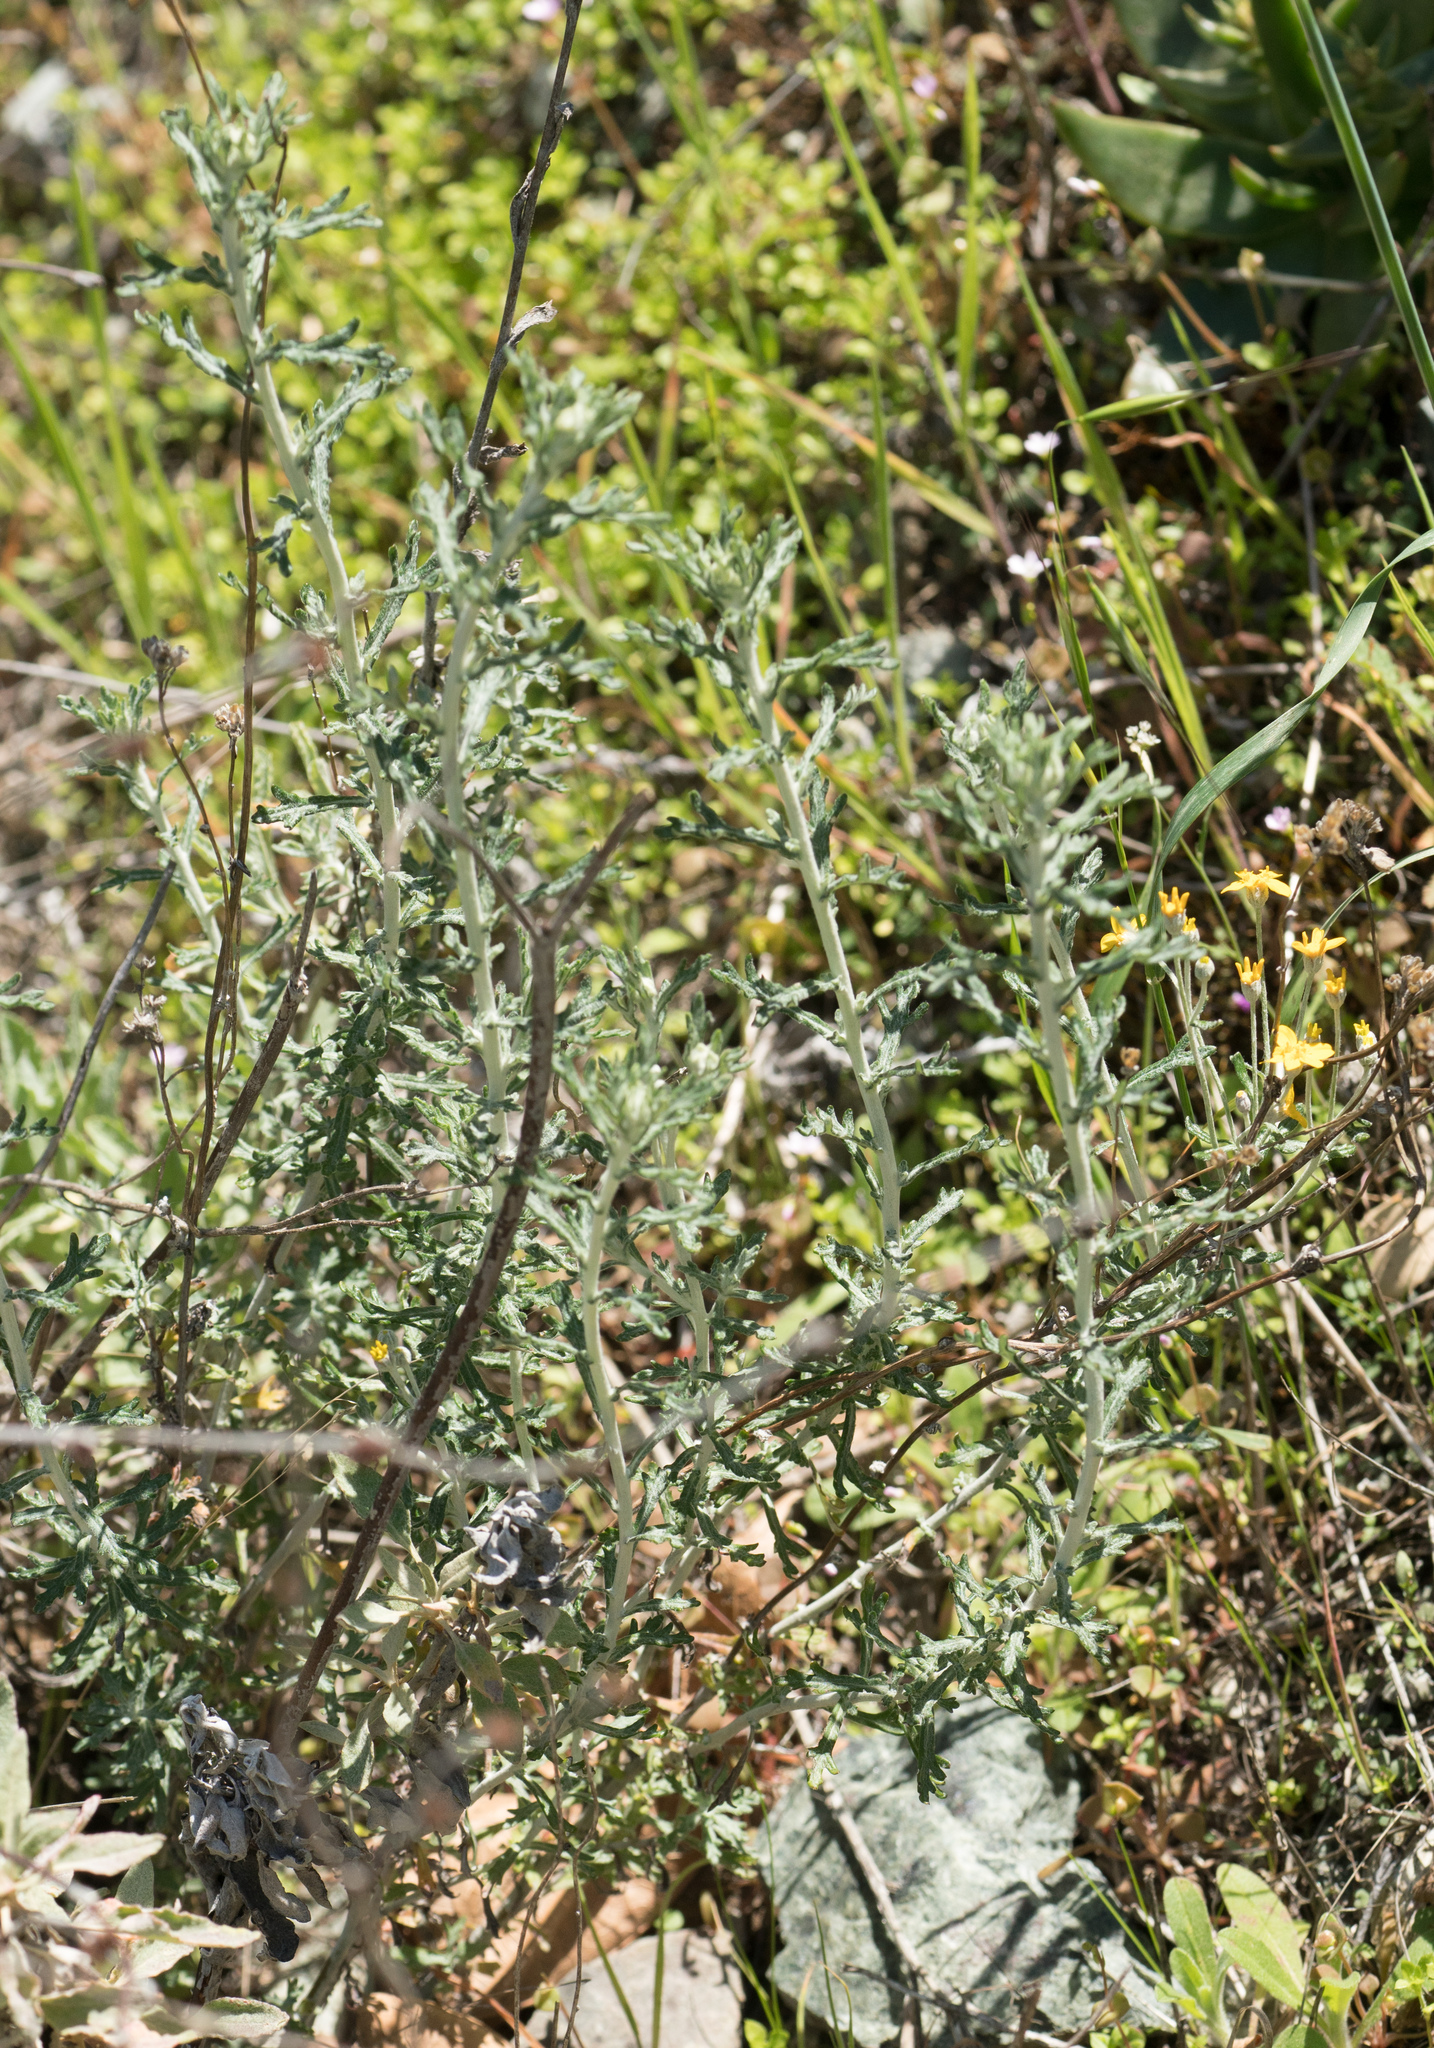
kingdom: Plantae
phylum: Tracheophyta
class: Magnoliopsida
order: Asterales
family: Asteraceae
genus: Eriophyllum
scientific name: Eriophyllum confertiflorum
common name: Golden-yarrow
